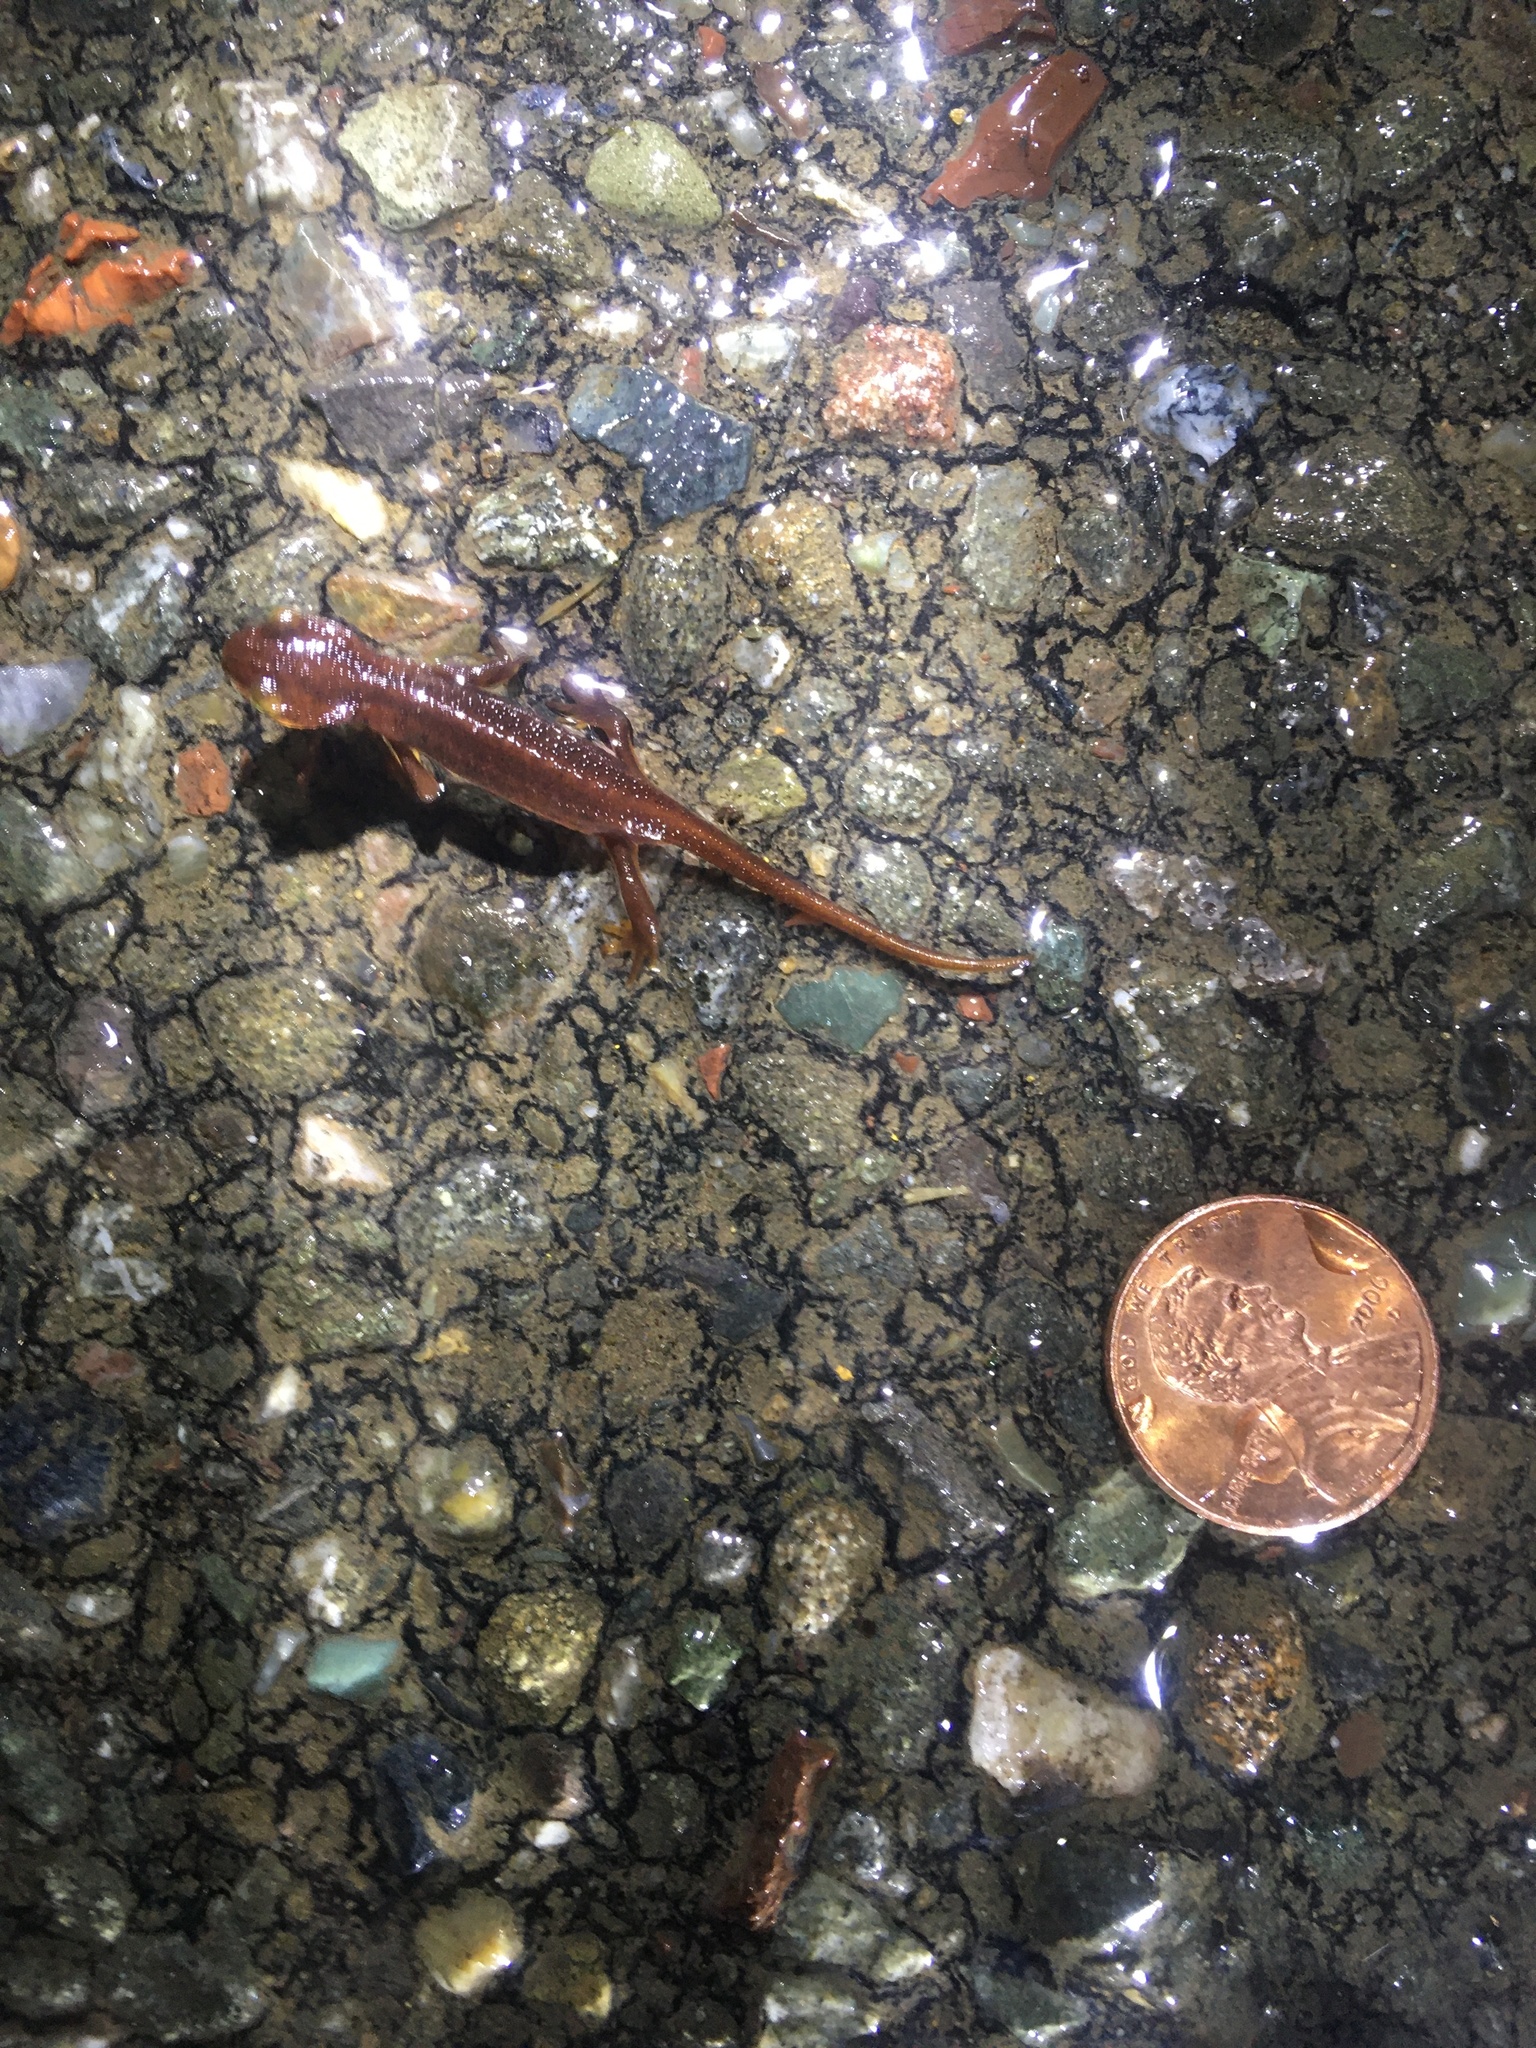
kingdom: Animalia
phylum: Chordata
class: Amphibia
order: Caudata
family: Salamandridae
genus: Taricha
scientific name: Taricha torosa
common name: California newt
